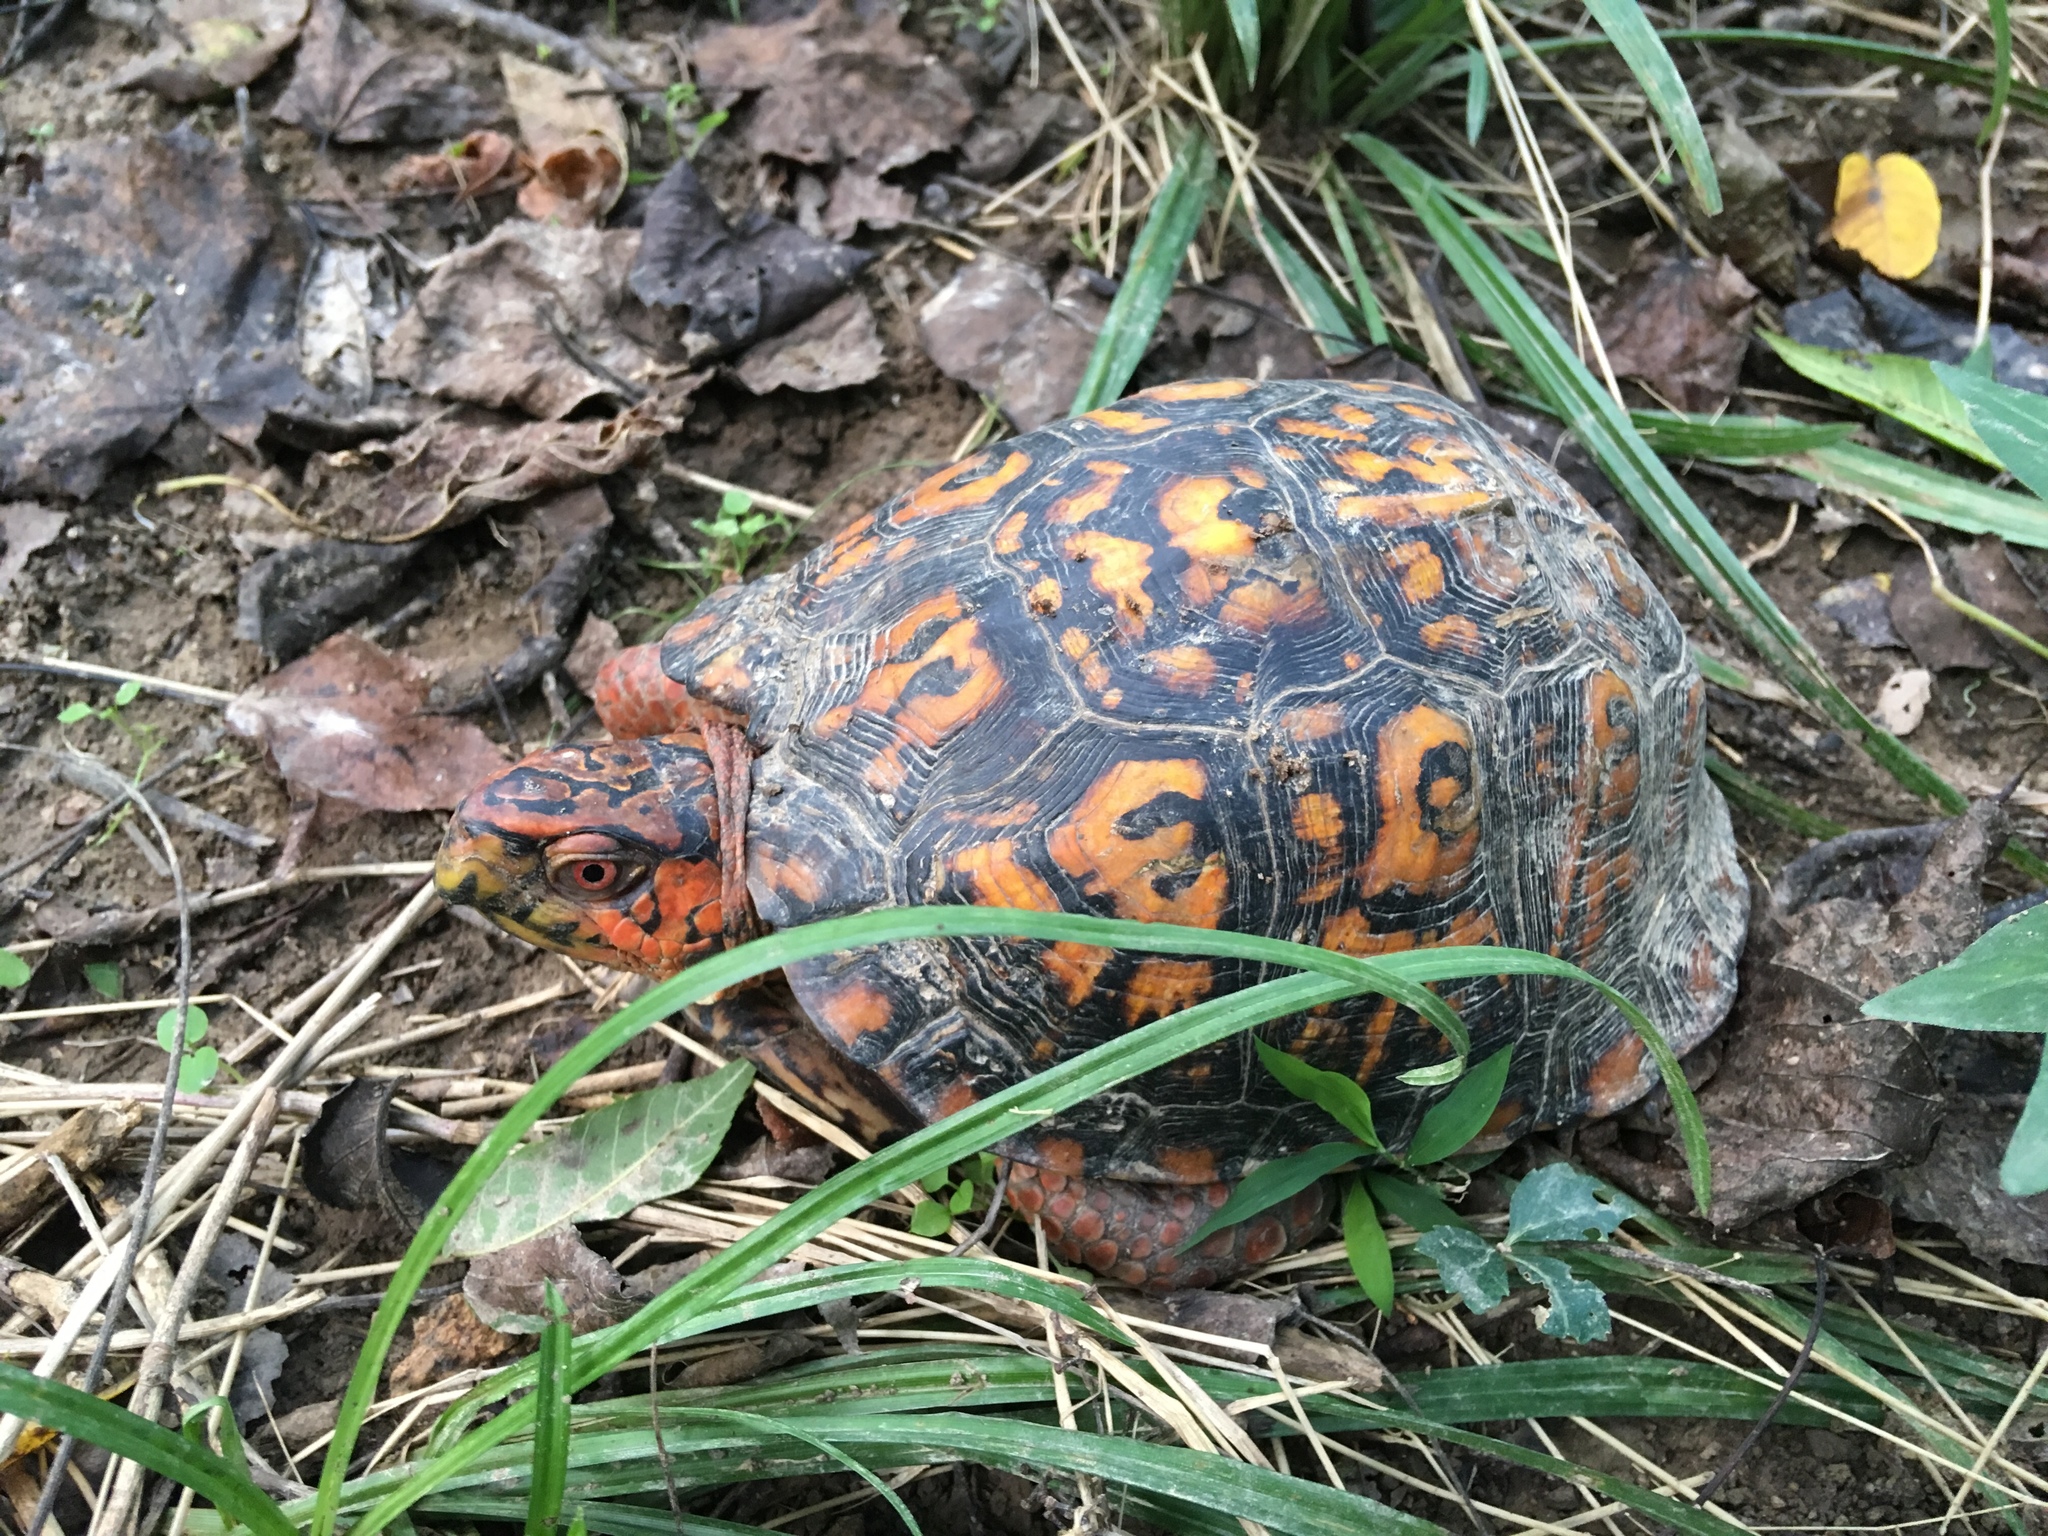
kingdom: Animalia
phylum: Chordata
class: Testudines
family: Emydidae
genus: Terrapene
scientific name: Terrapene carolina
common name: Common box turtle
